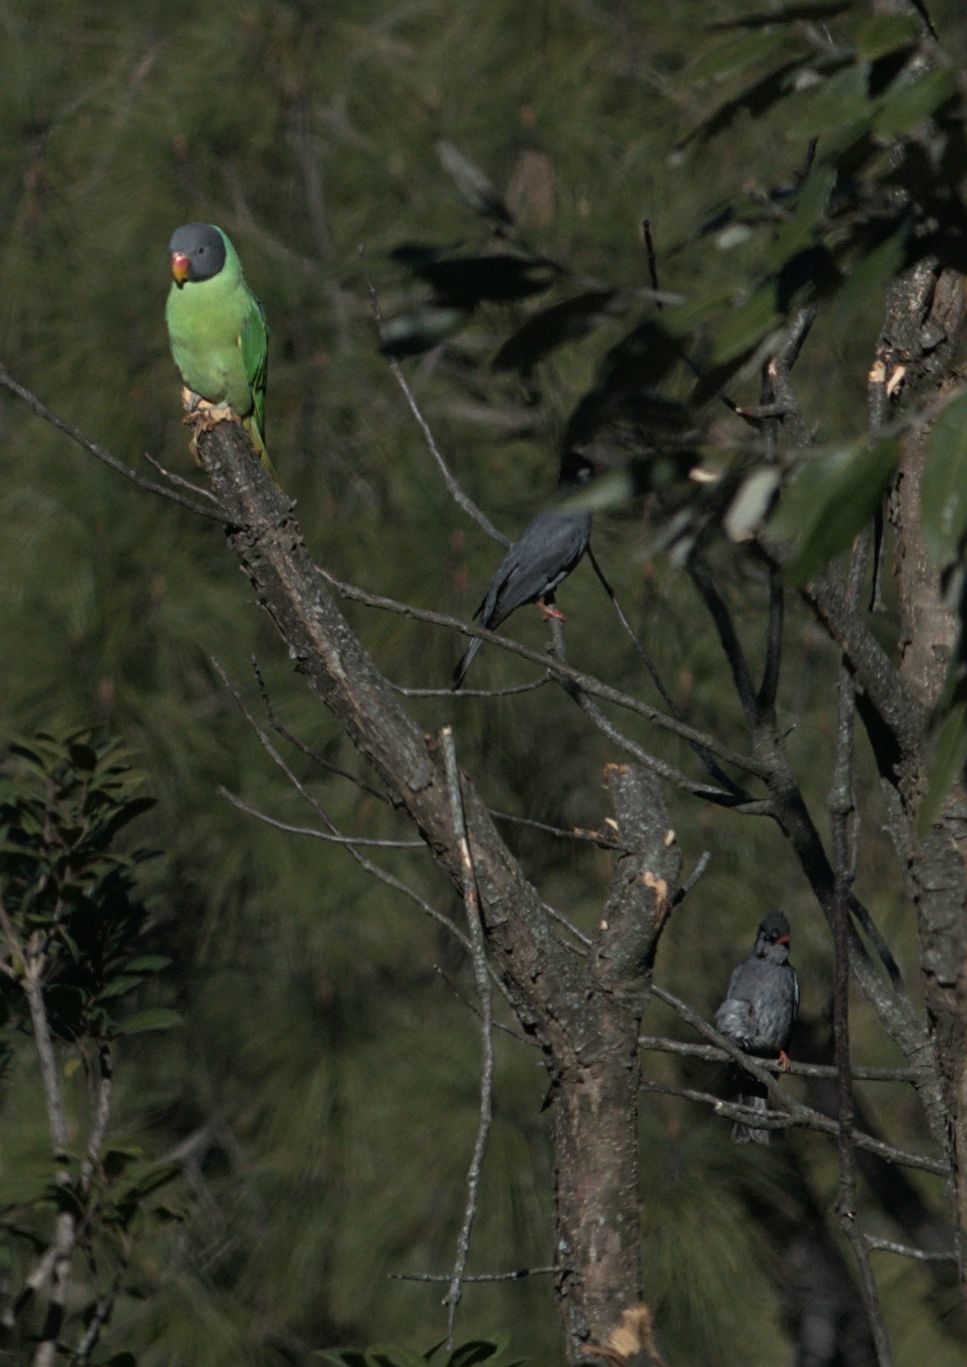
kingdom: Animalia
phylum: Chordata
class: Aves
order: Passeriformes
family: Pycnonotidae
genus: Hypsipetes
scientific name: Hypsipetes leucocephalus
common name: Black bulbul
